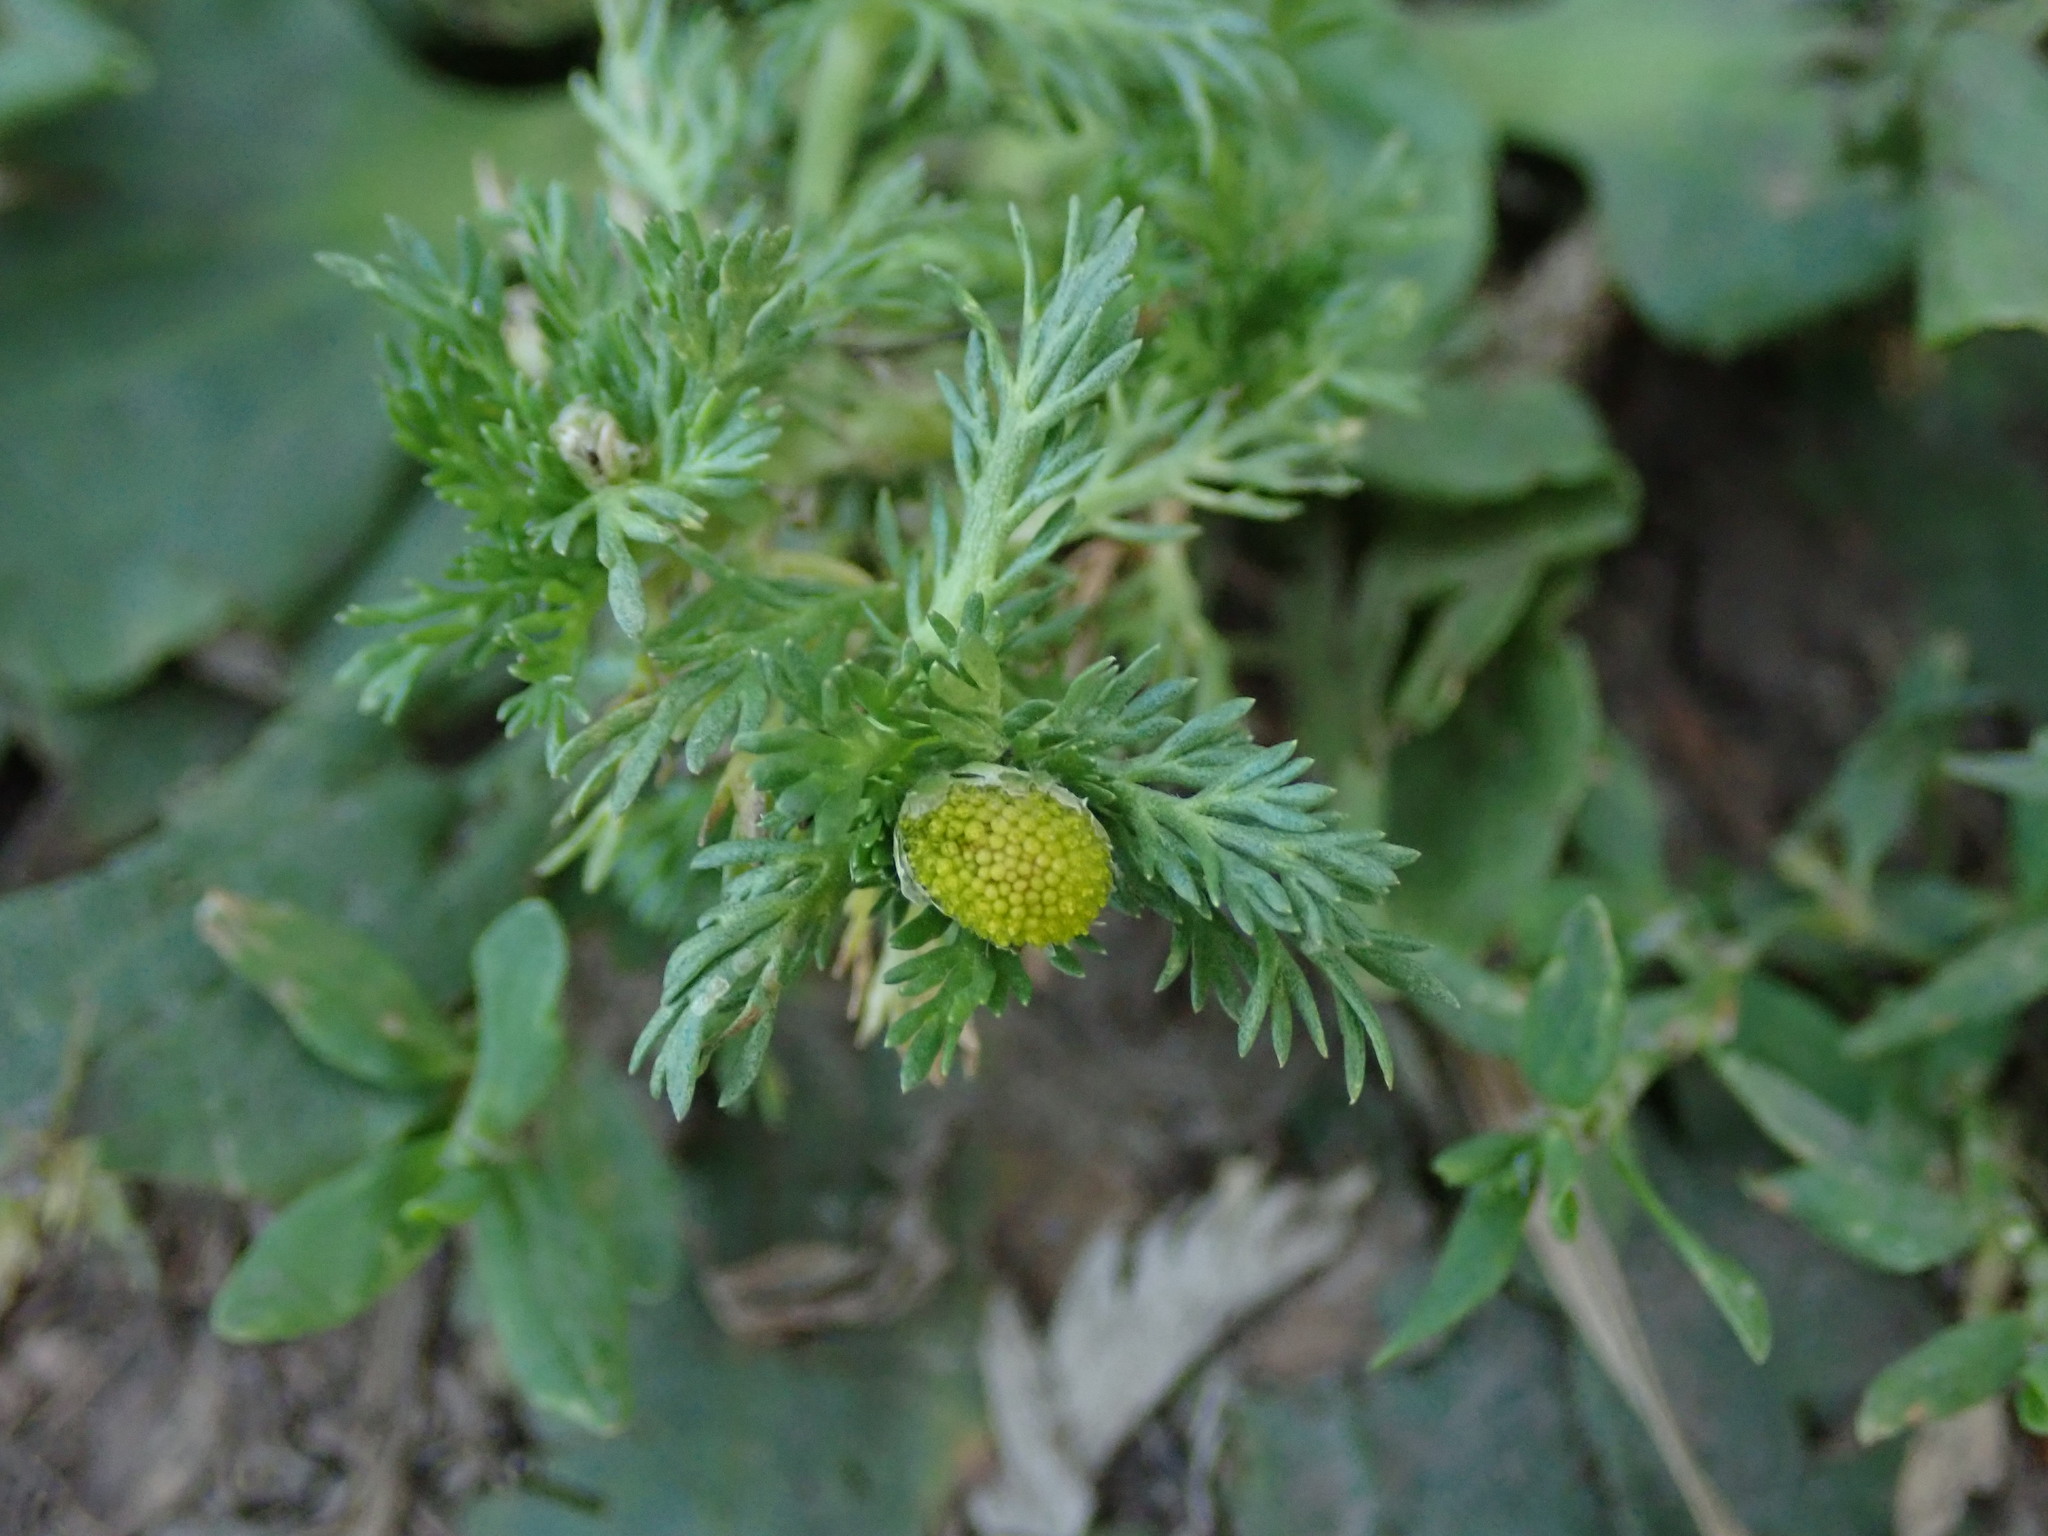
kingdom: Plantae
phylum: Tracheophyta
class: Magnoliopsida
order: Asterales
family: Asteraceae
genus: Matricaria
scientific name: Matricaria discoidea
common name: Disc mayweed
